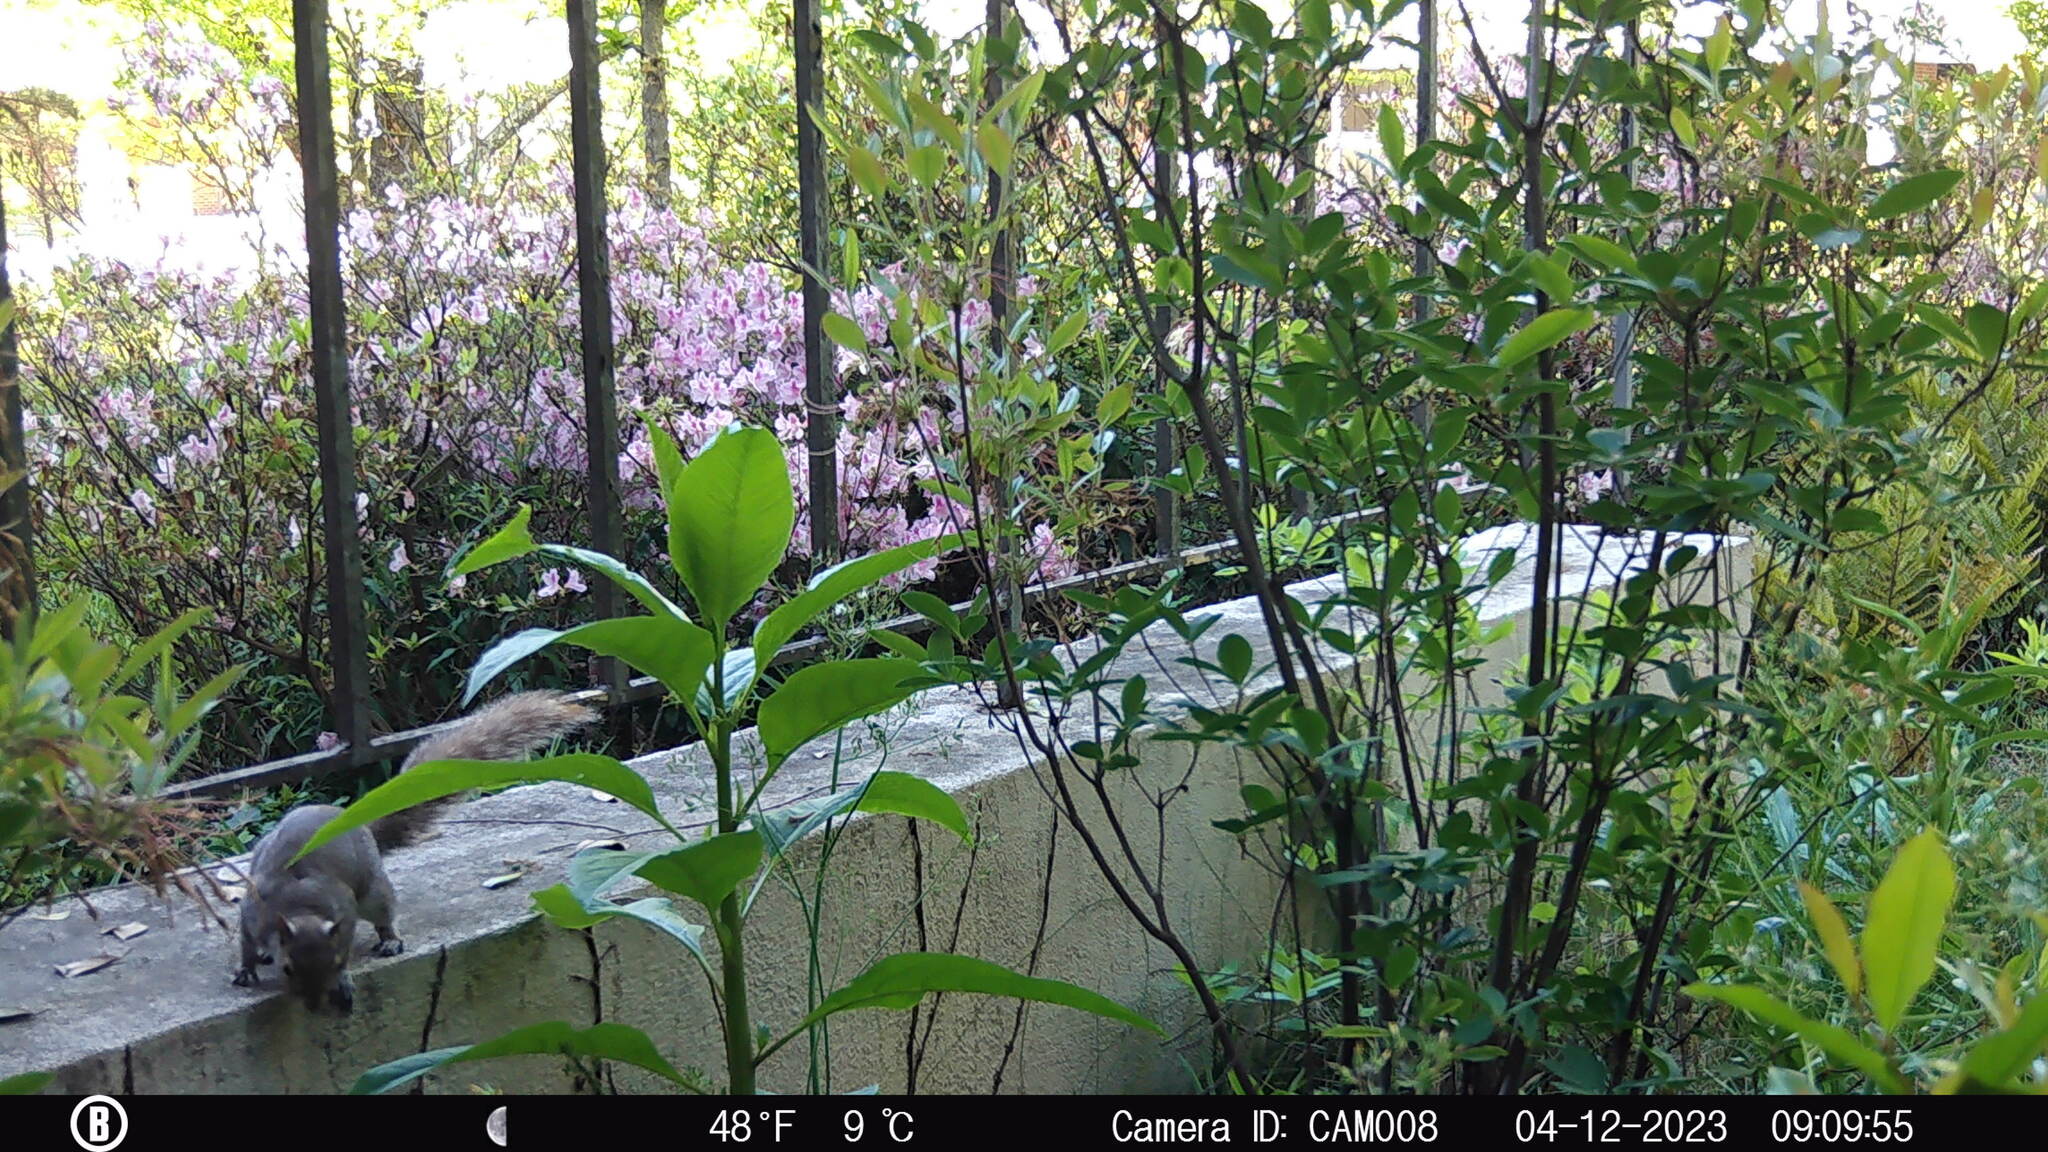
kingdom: Animalia
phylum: Chordata
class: Mammalia
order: Rodentia
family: Sciuridae
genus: Sciurus
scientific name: Sciurus carolinensis
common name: Eastern gray squirrel
